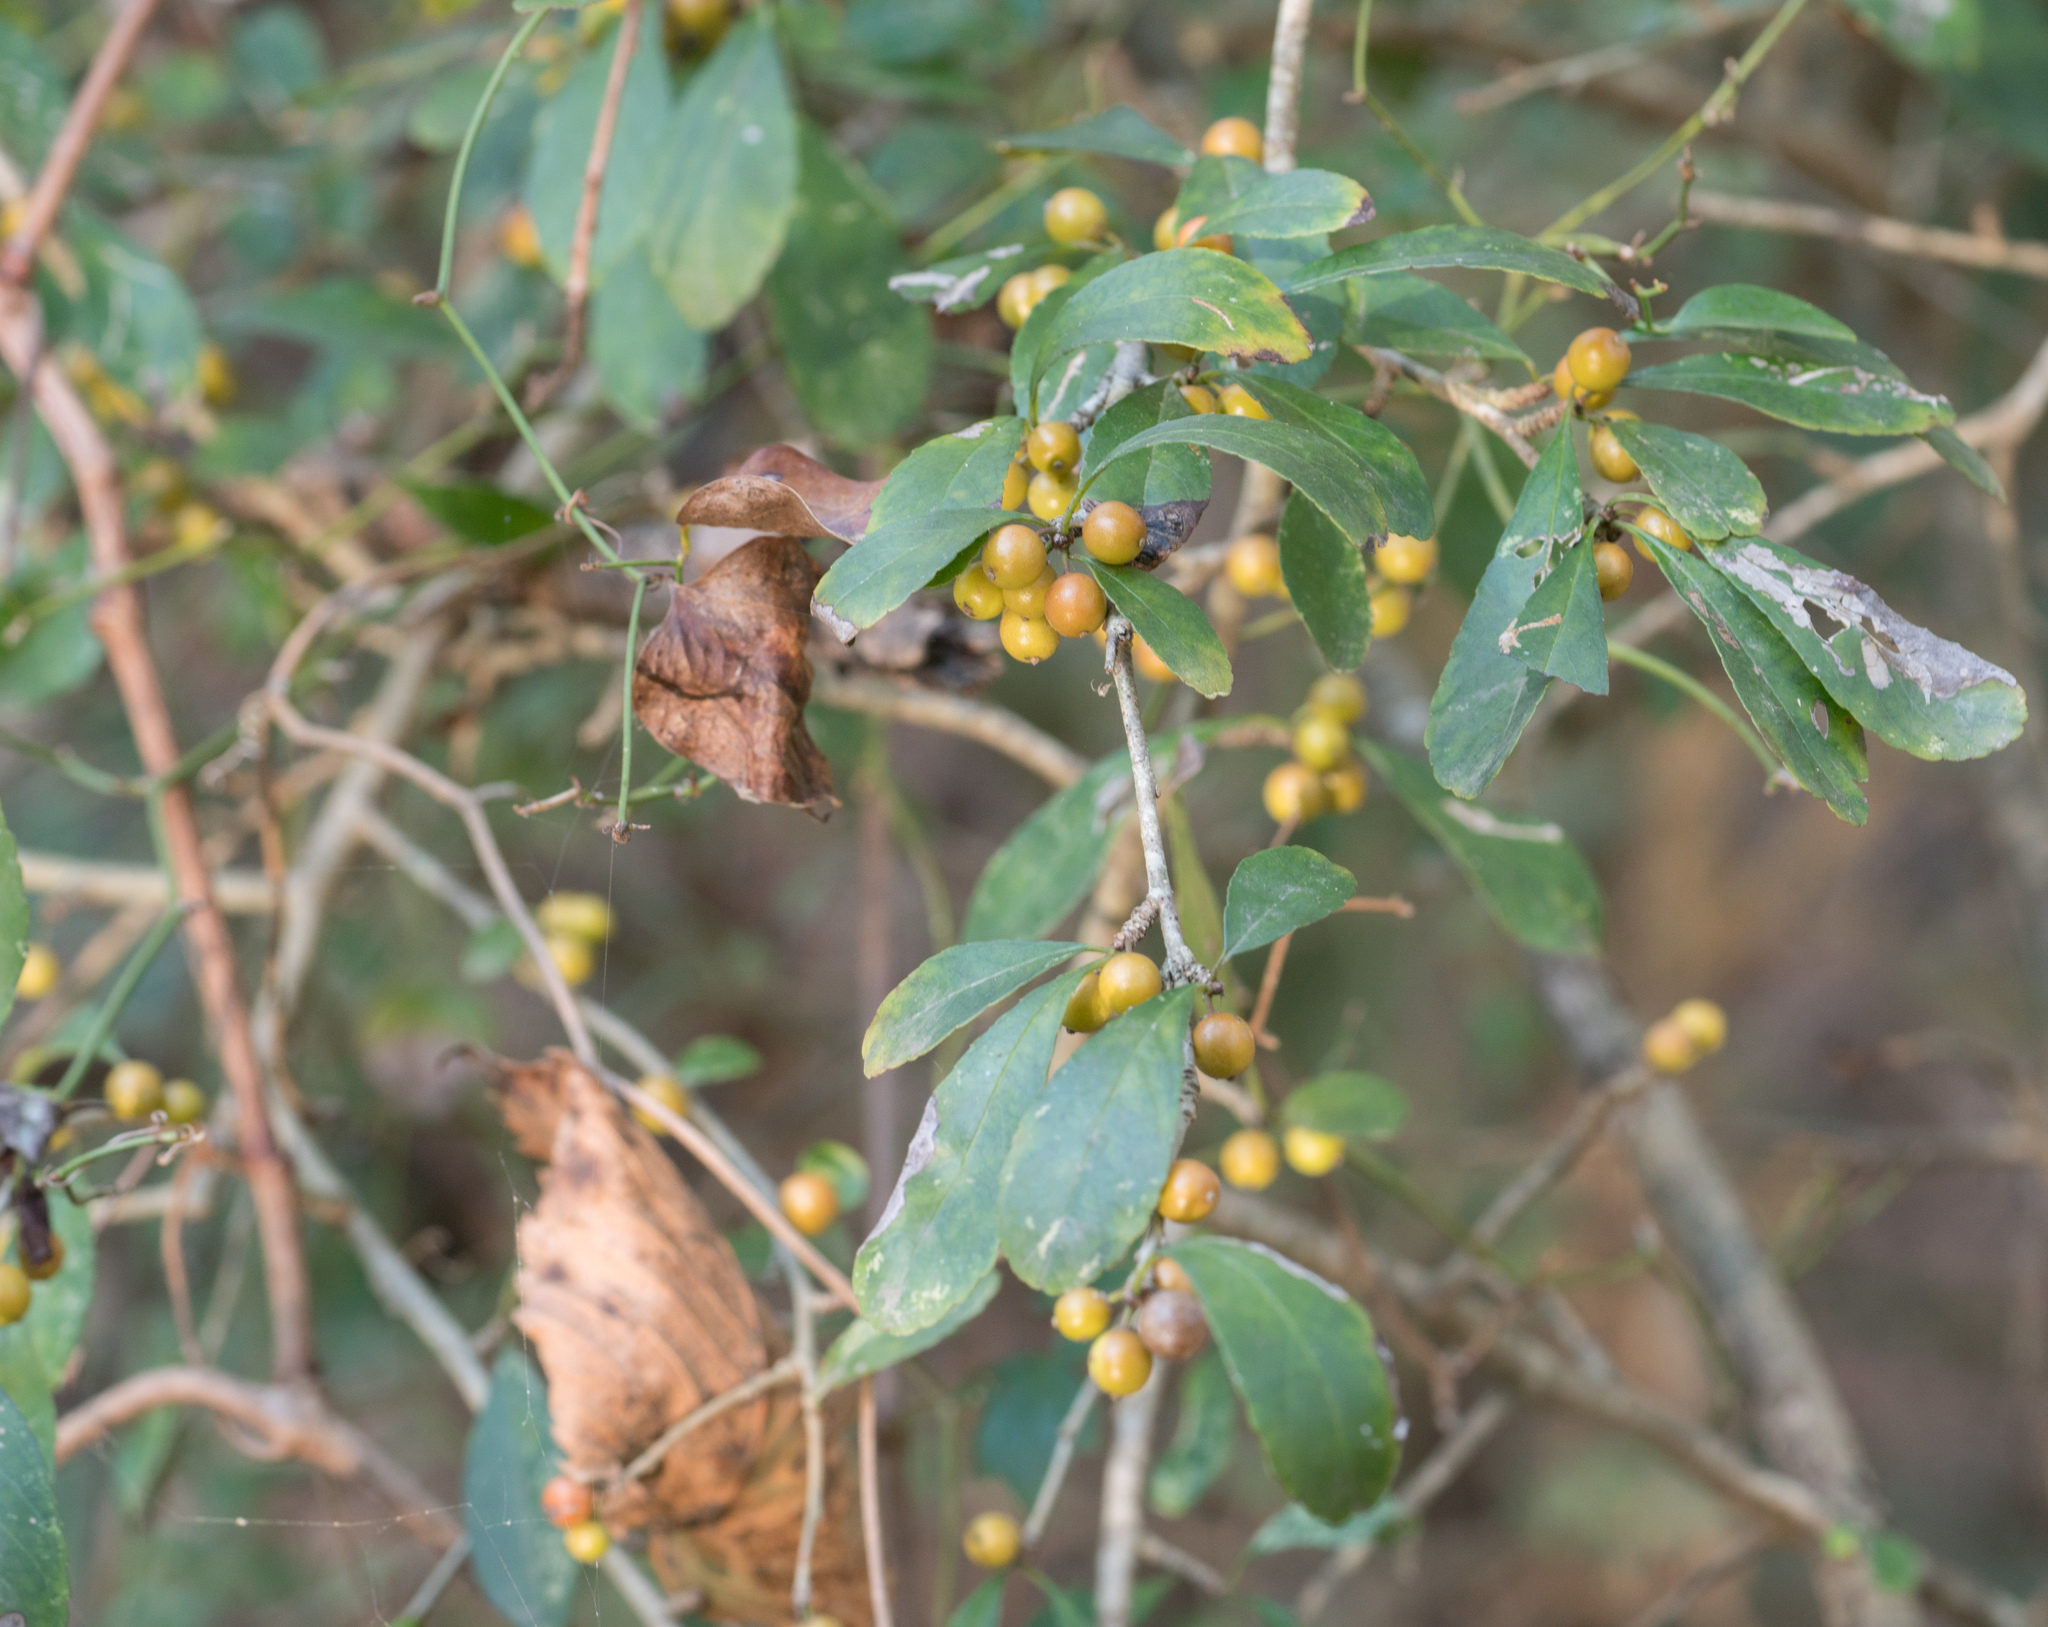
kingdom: Plantae
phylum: Tracheophyta
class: Magnoliopsida
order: Aquifoliales
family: Aquifoliaceae
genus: Ilex
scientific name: Ilex decidua
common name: Possum-haw
